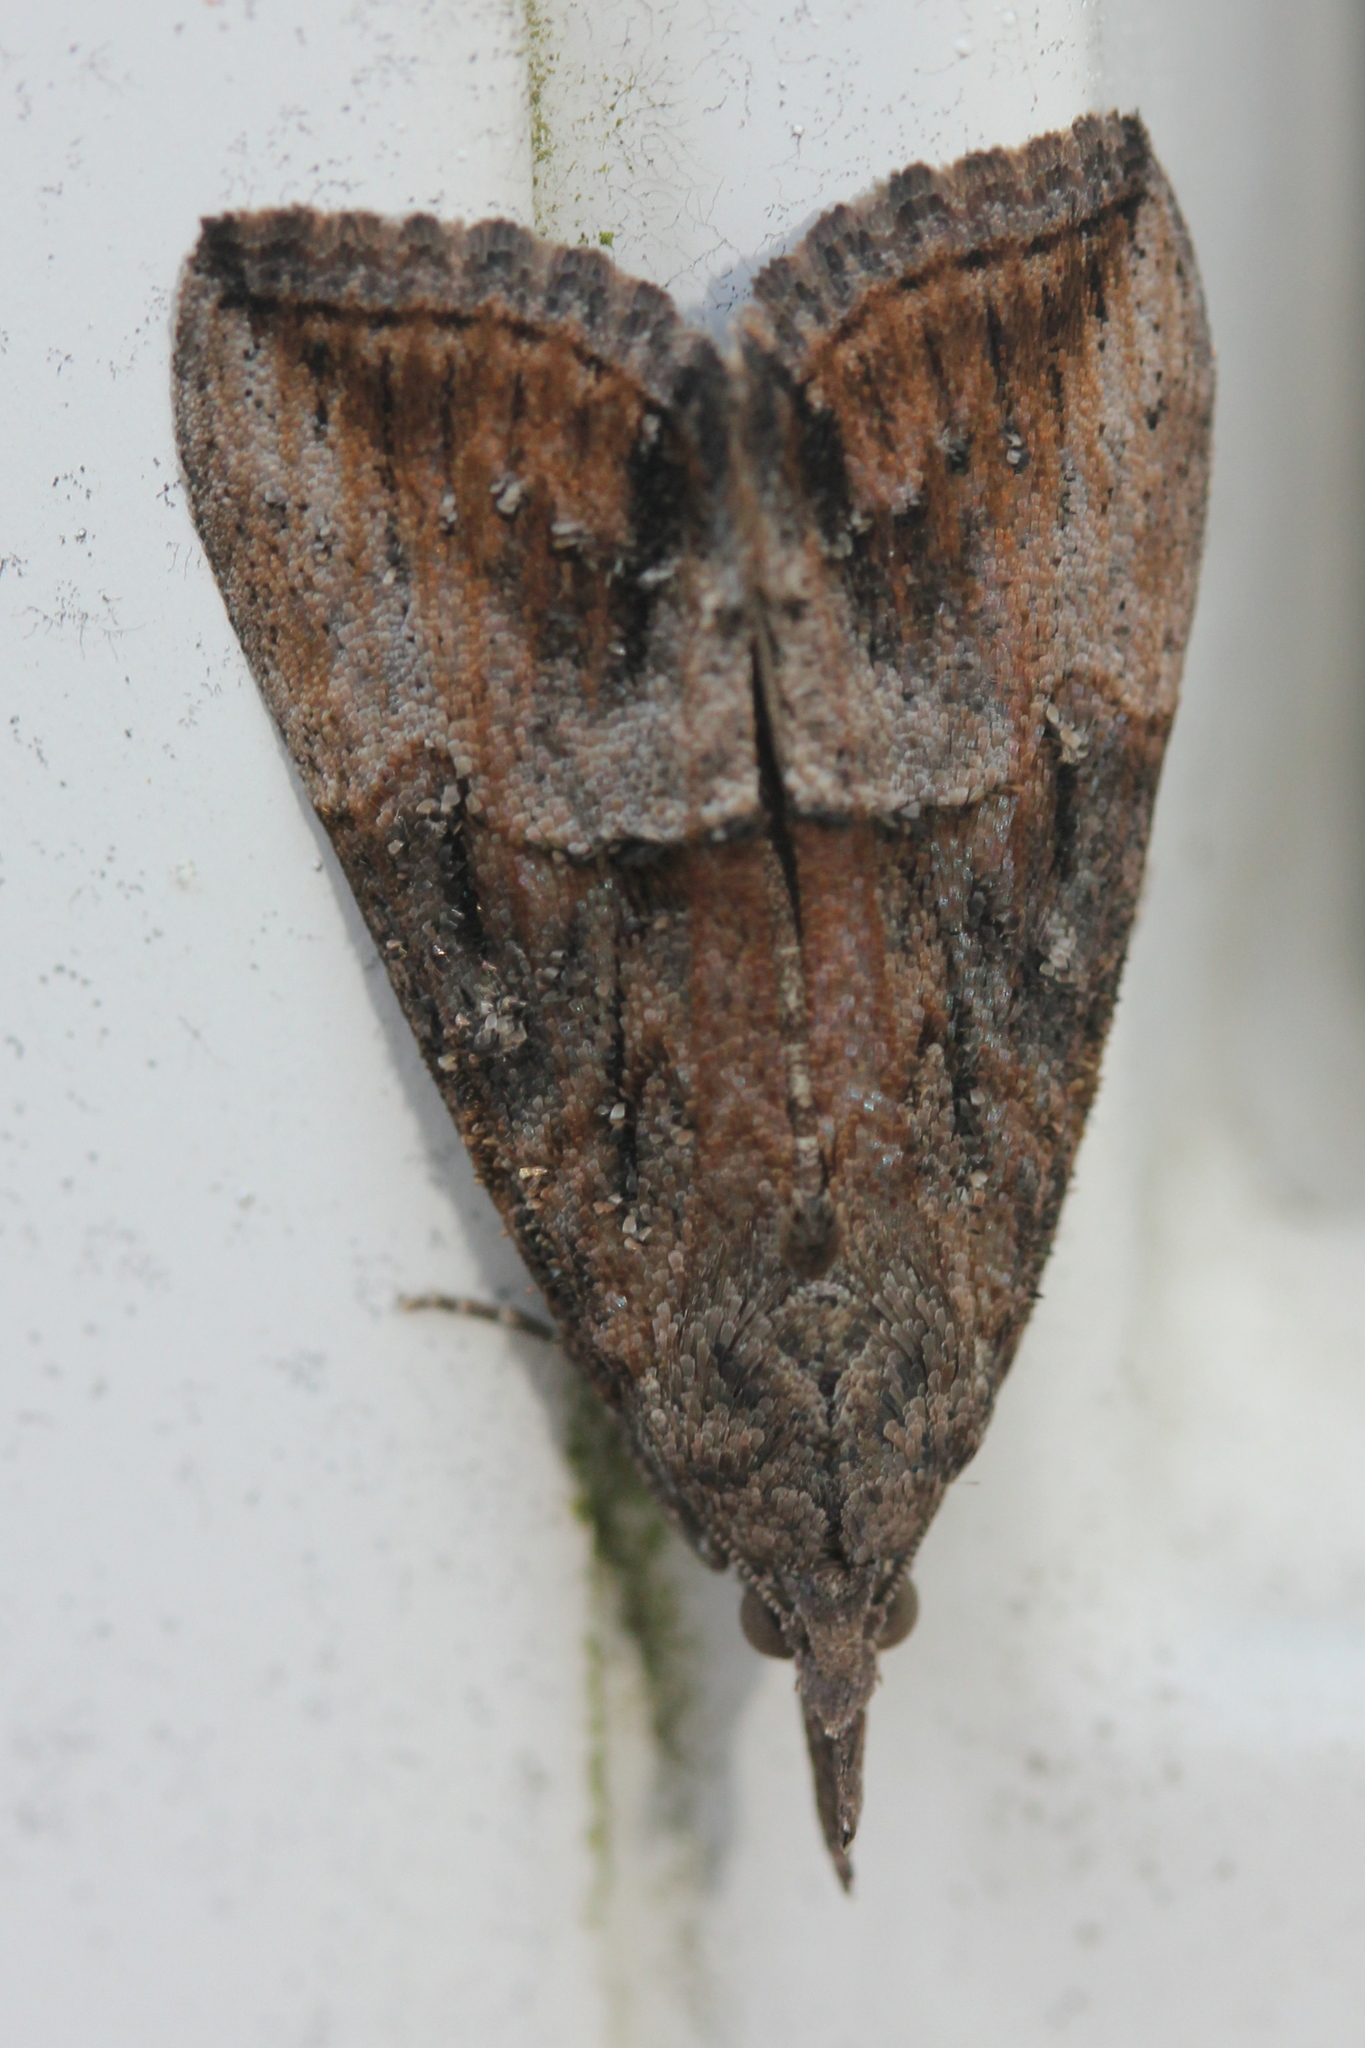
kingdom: Animalia
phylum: Arthropoda
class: Insecta
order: Lepidoptera
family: Erebidae
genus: Hypena
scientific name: Hypena scabra
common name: Green cloverworm
